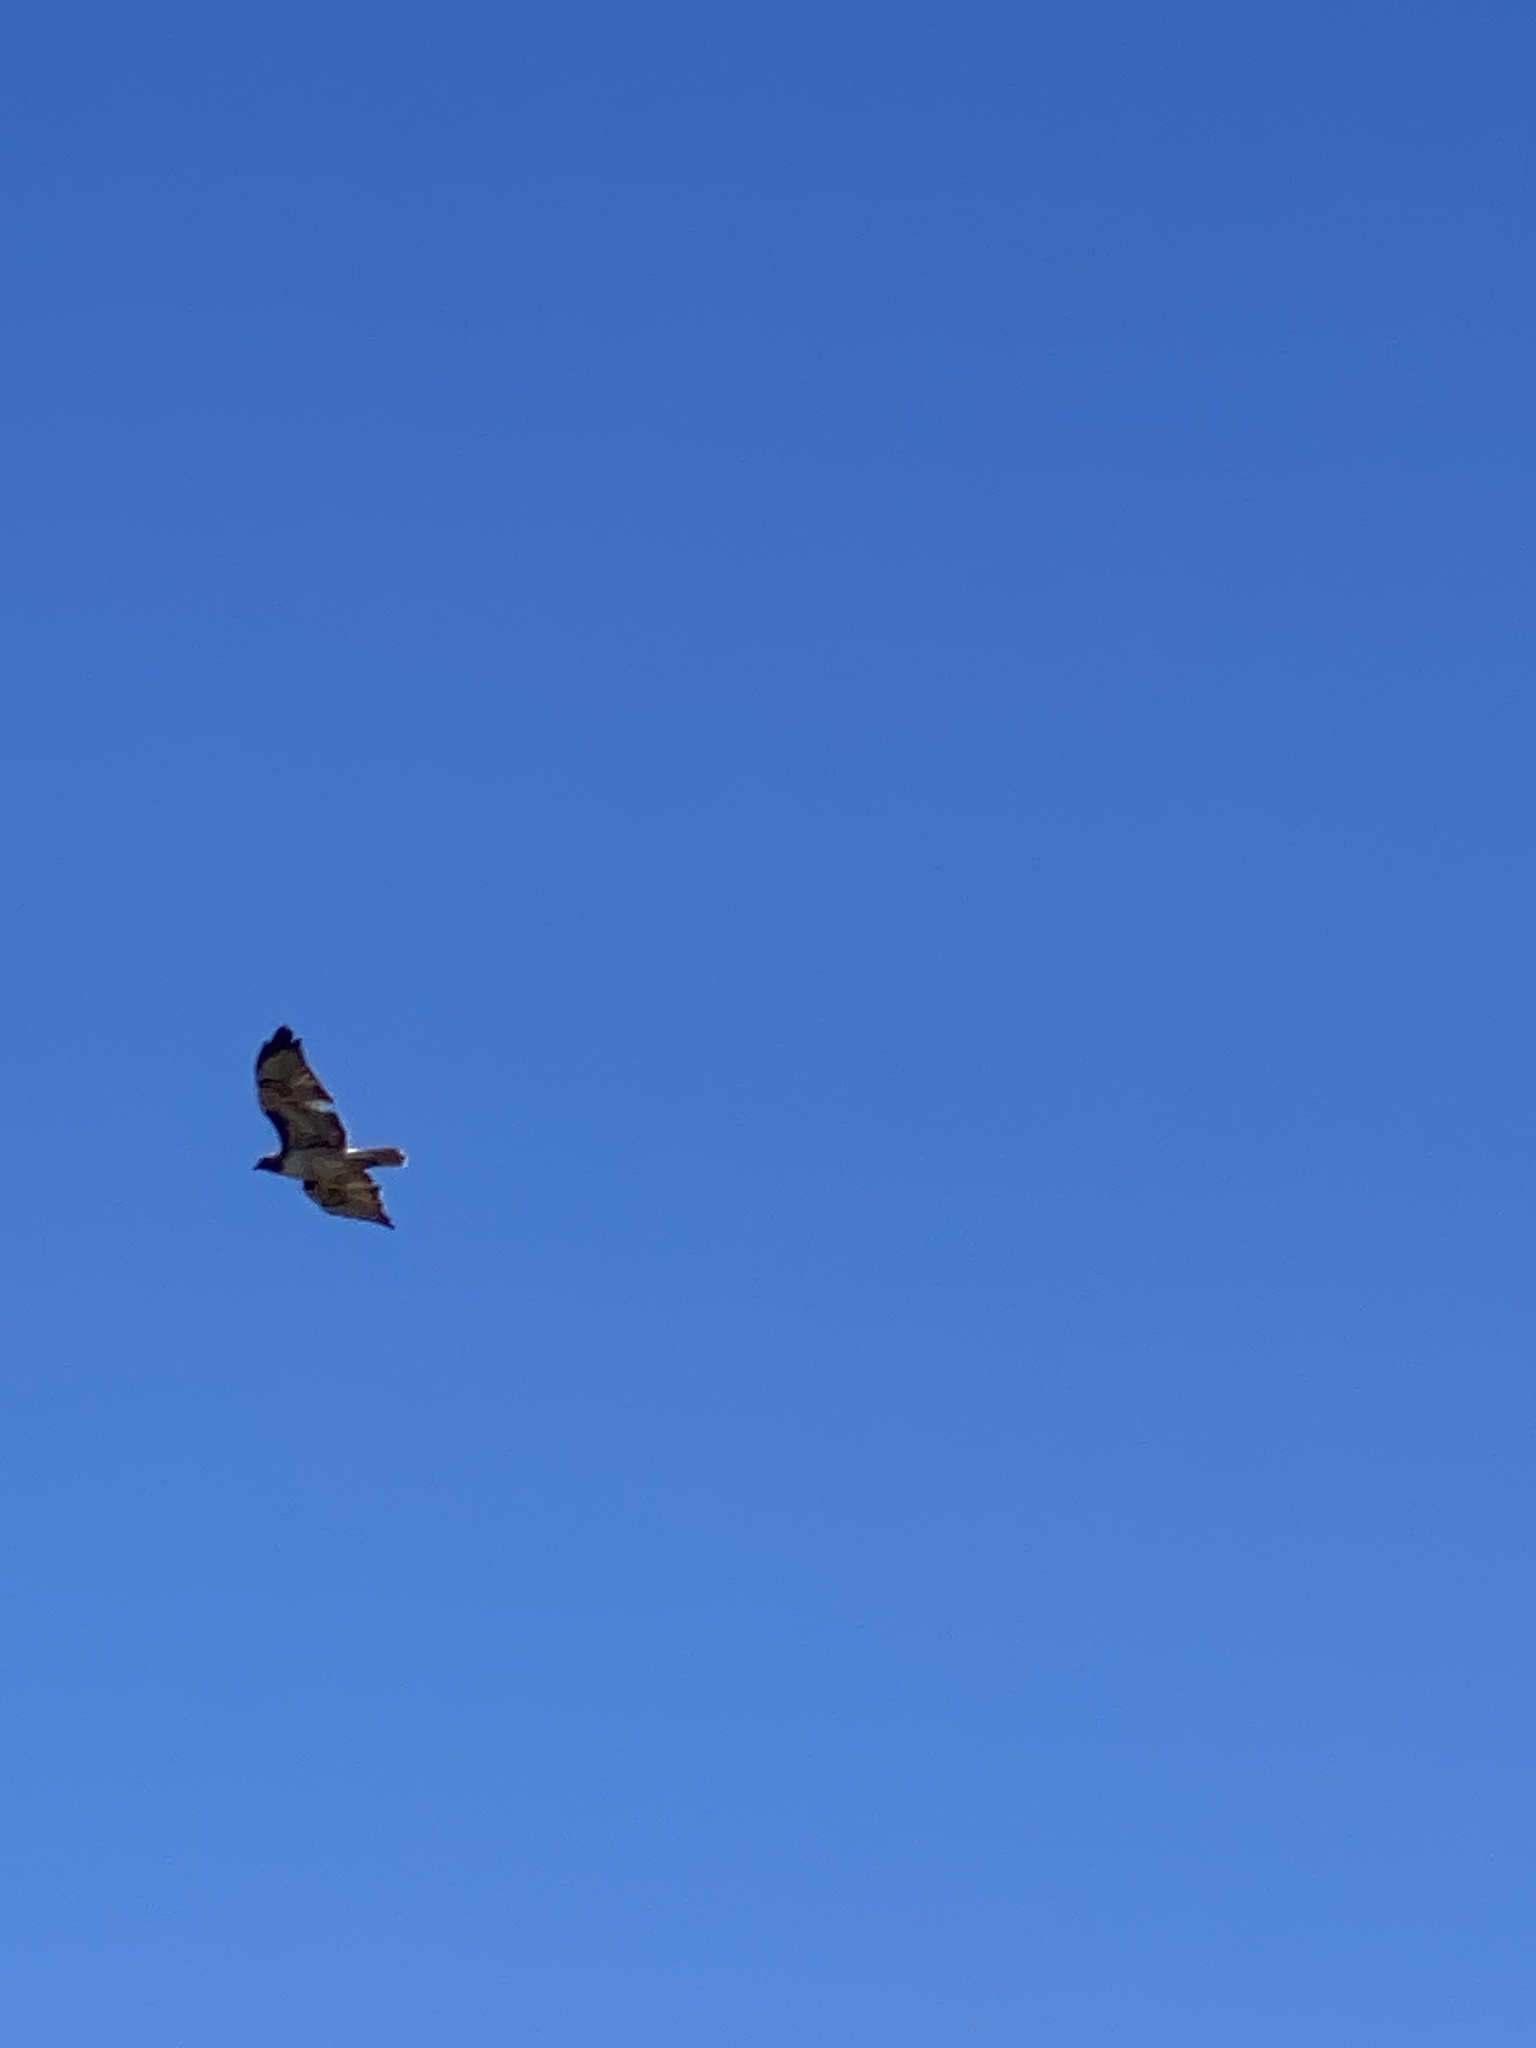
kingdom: Animalia
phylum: Chordata
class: Aves
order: Accipitriformes
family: Accipitridae
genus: Buteo
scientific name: Buteo jamaicensis
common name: Red-tailed hawk
